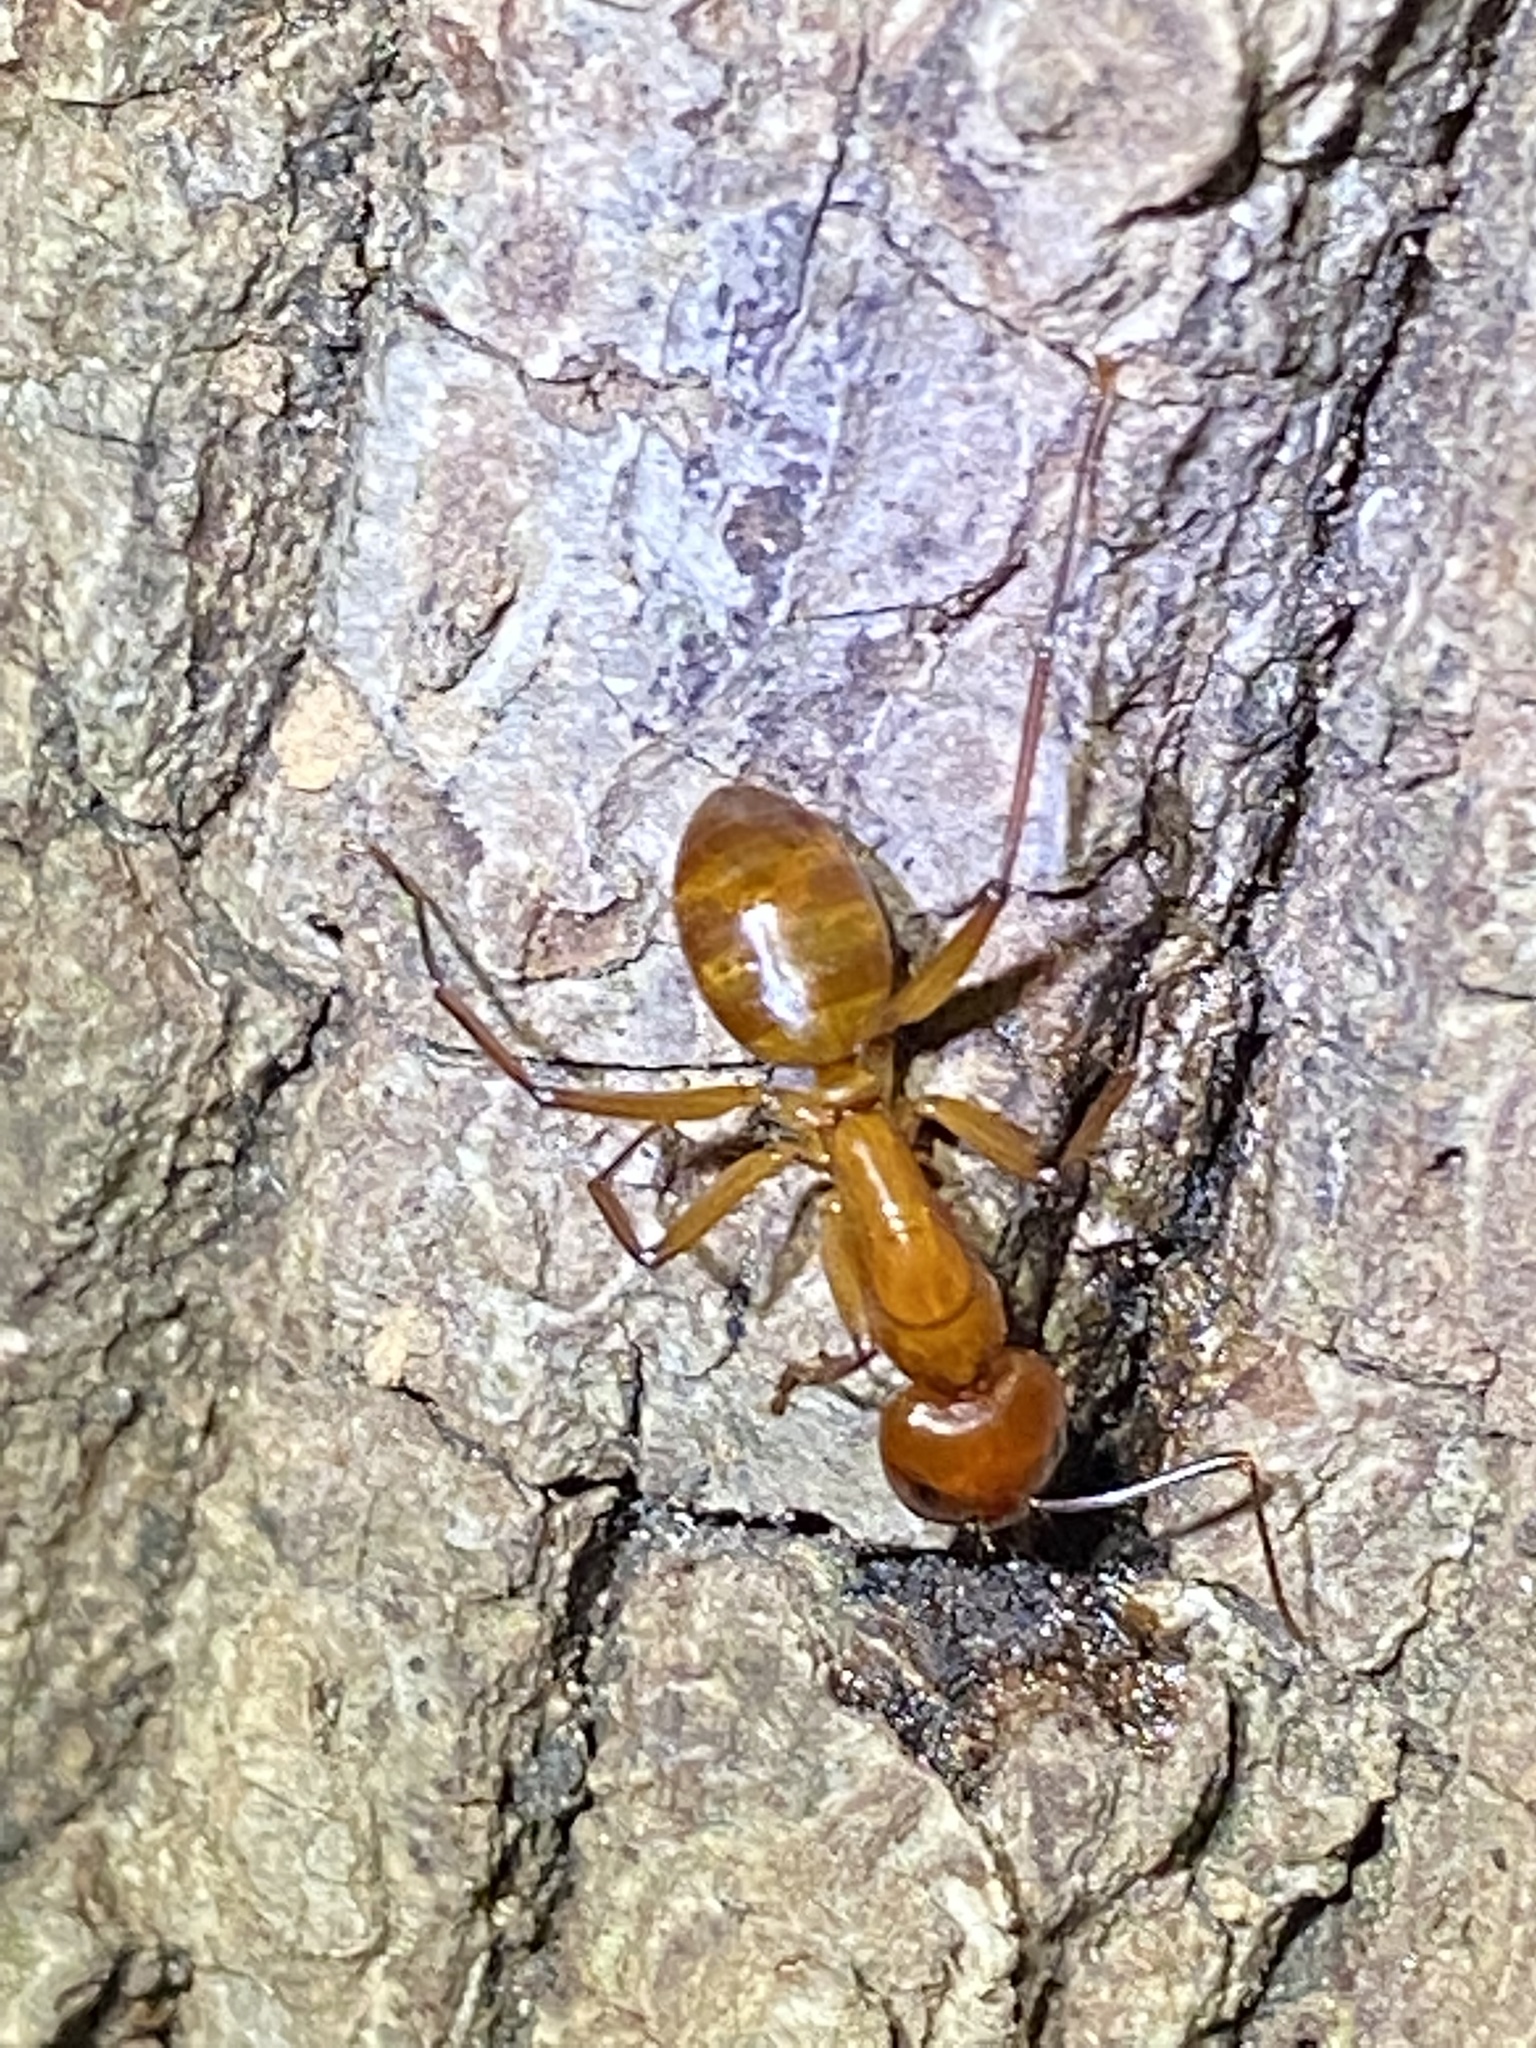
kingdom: Animalia
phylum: Arthropoda
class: Insecta
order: Hymenoptera
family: Formicidae
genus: Camponotus
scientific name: Camponotus castaneus
